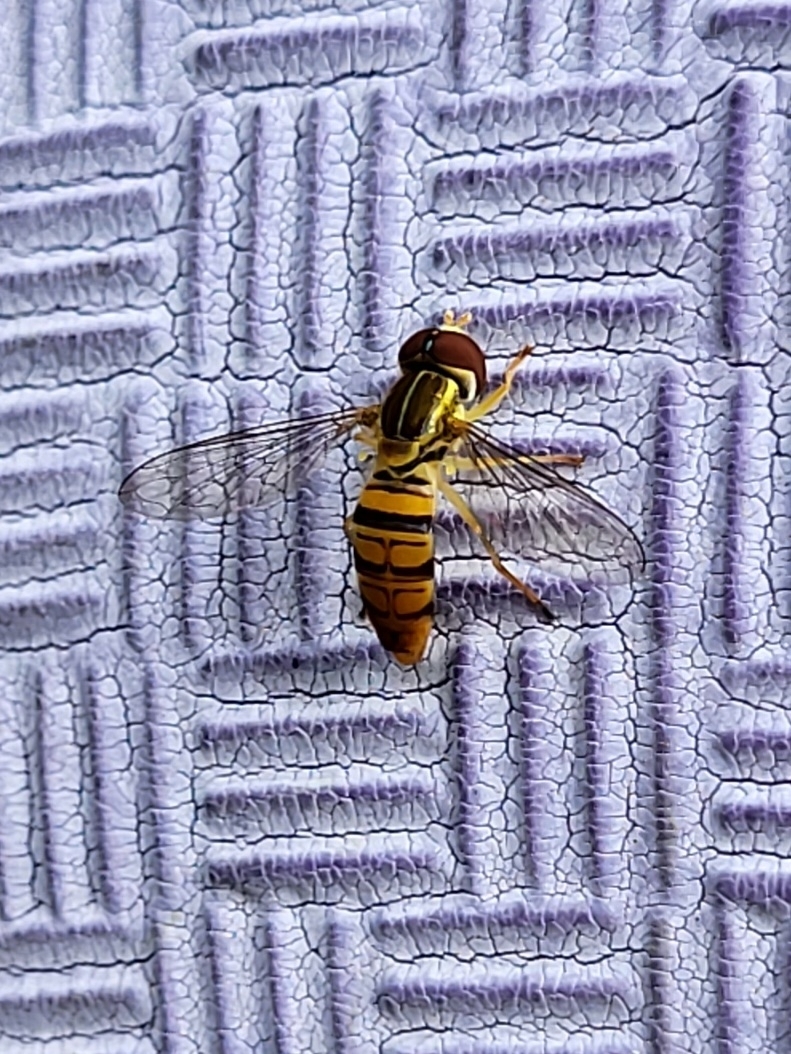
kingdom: Animalia
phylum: Arthropoda
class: Insecta
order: Diptera
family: Syrphidae
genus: Toxomerus
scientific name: Toxomerus politus
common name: Maize calligrapher
